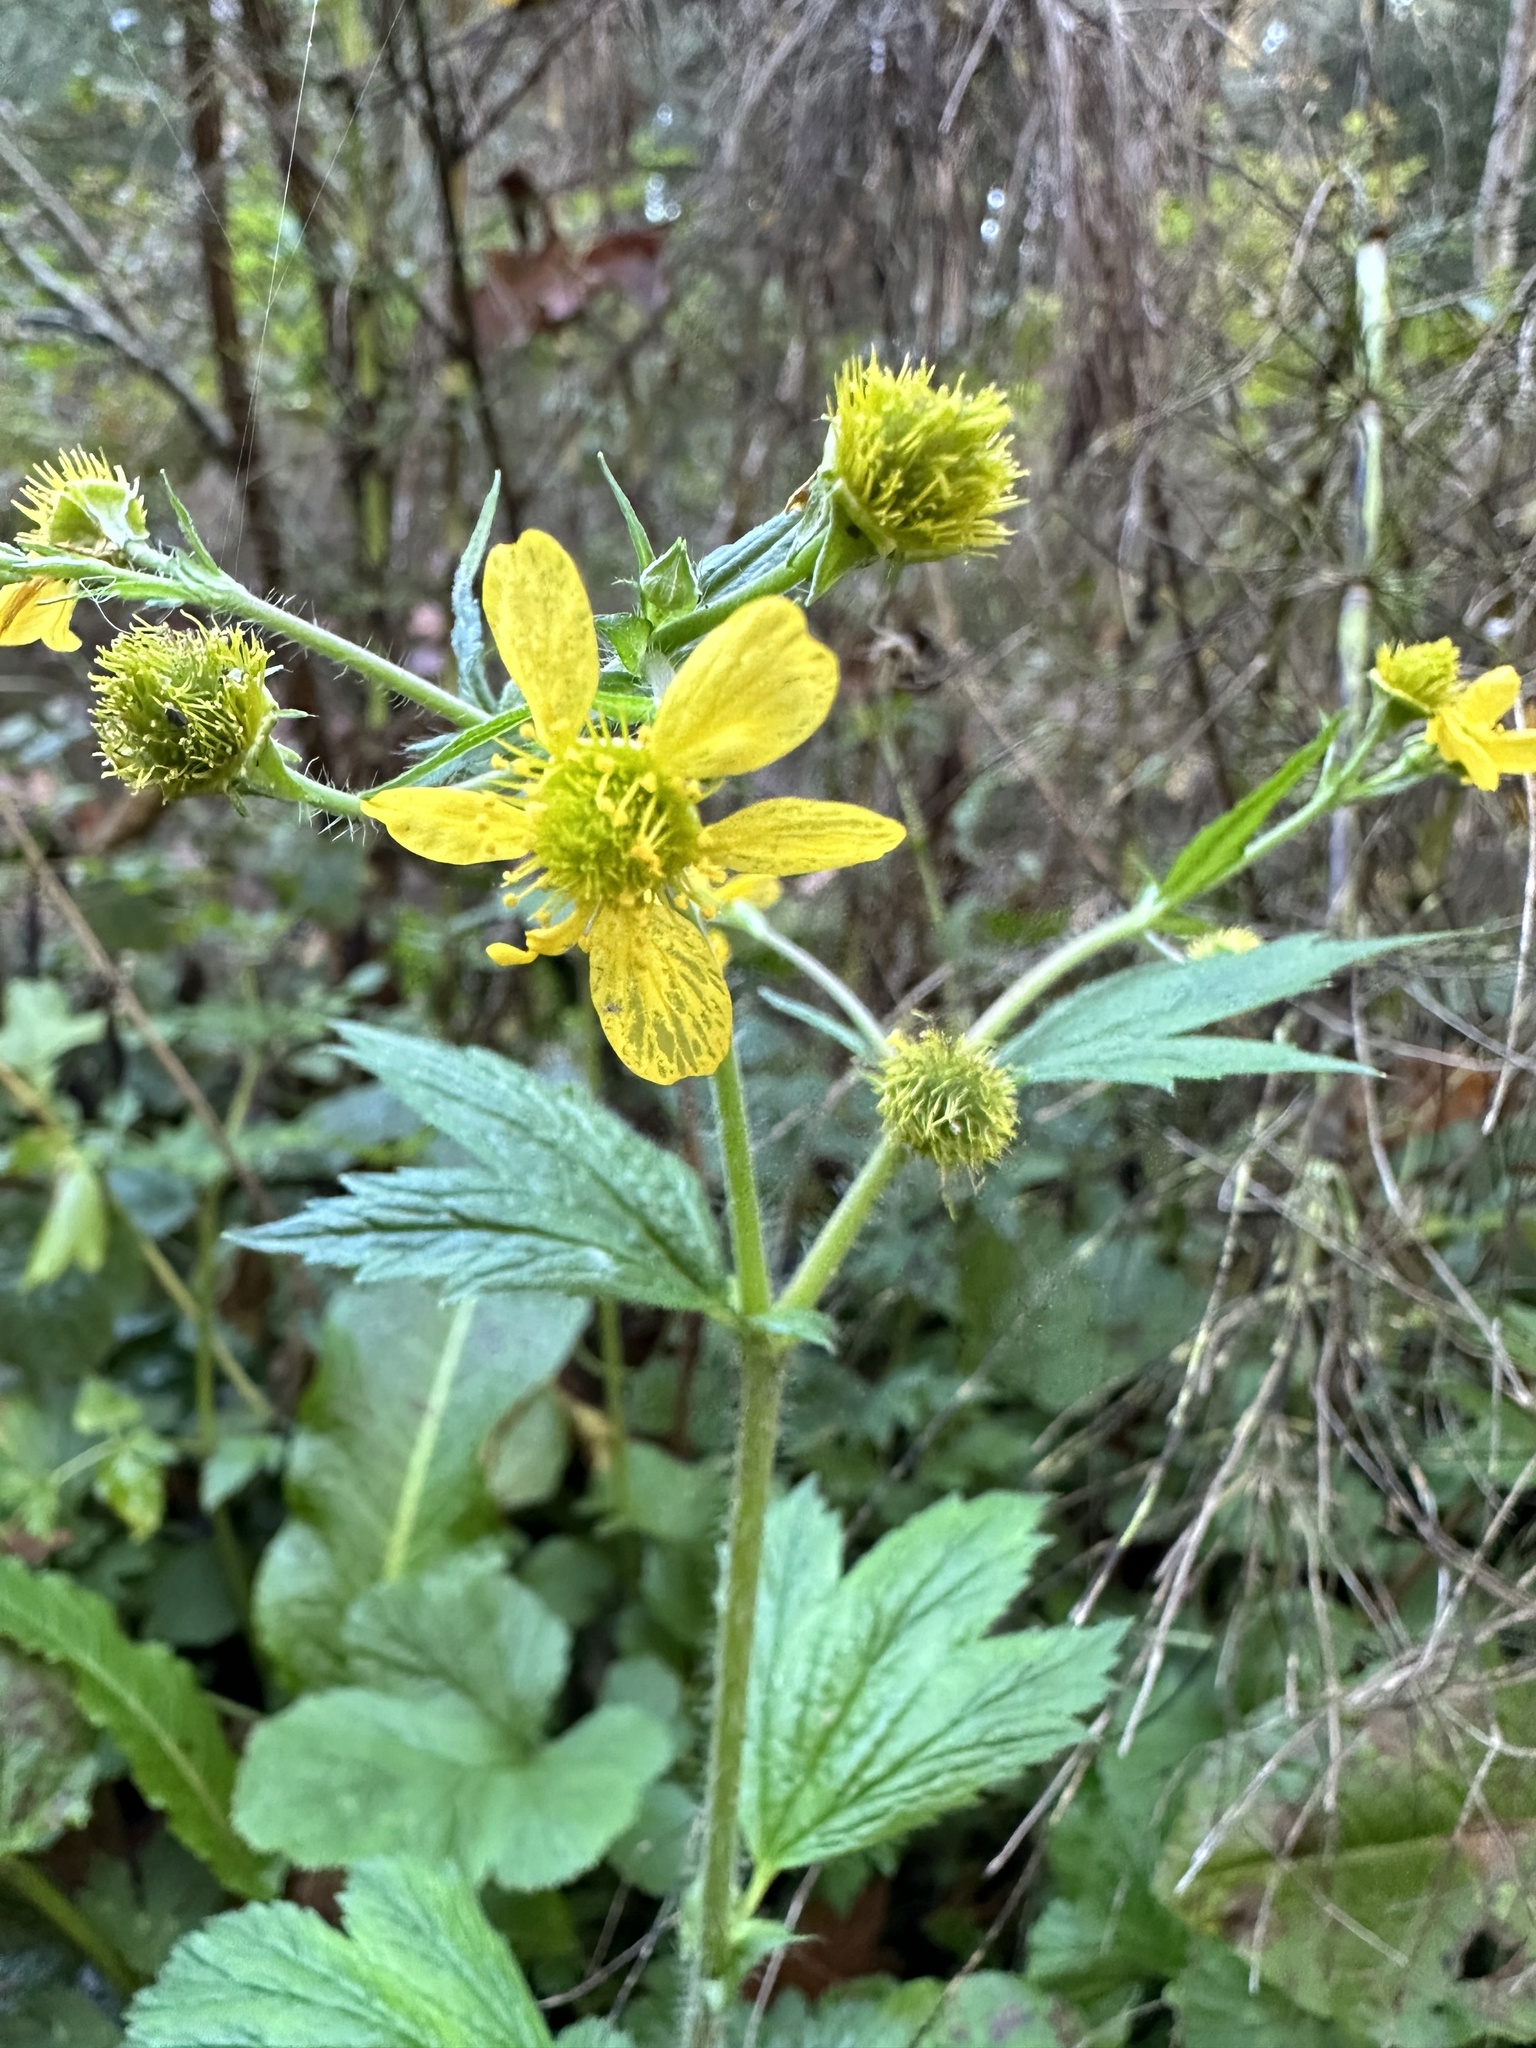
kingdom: Plantae
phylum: Tracheophyta
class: Magnoliopsida
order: Rosales
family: Rosaceae
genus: Geum
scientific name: Geum macrophyllum
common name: Large-leaved avens
